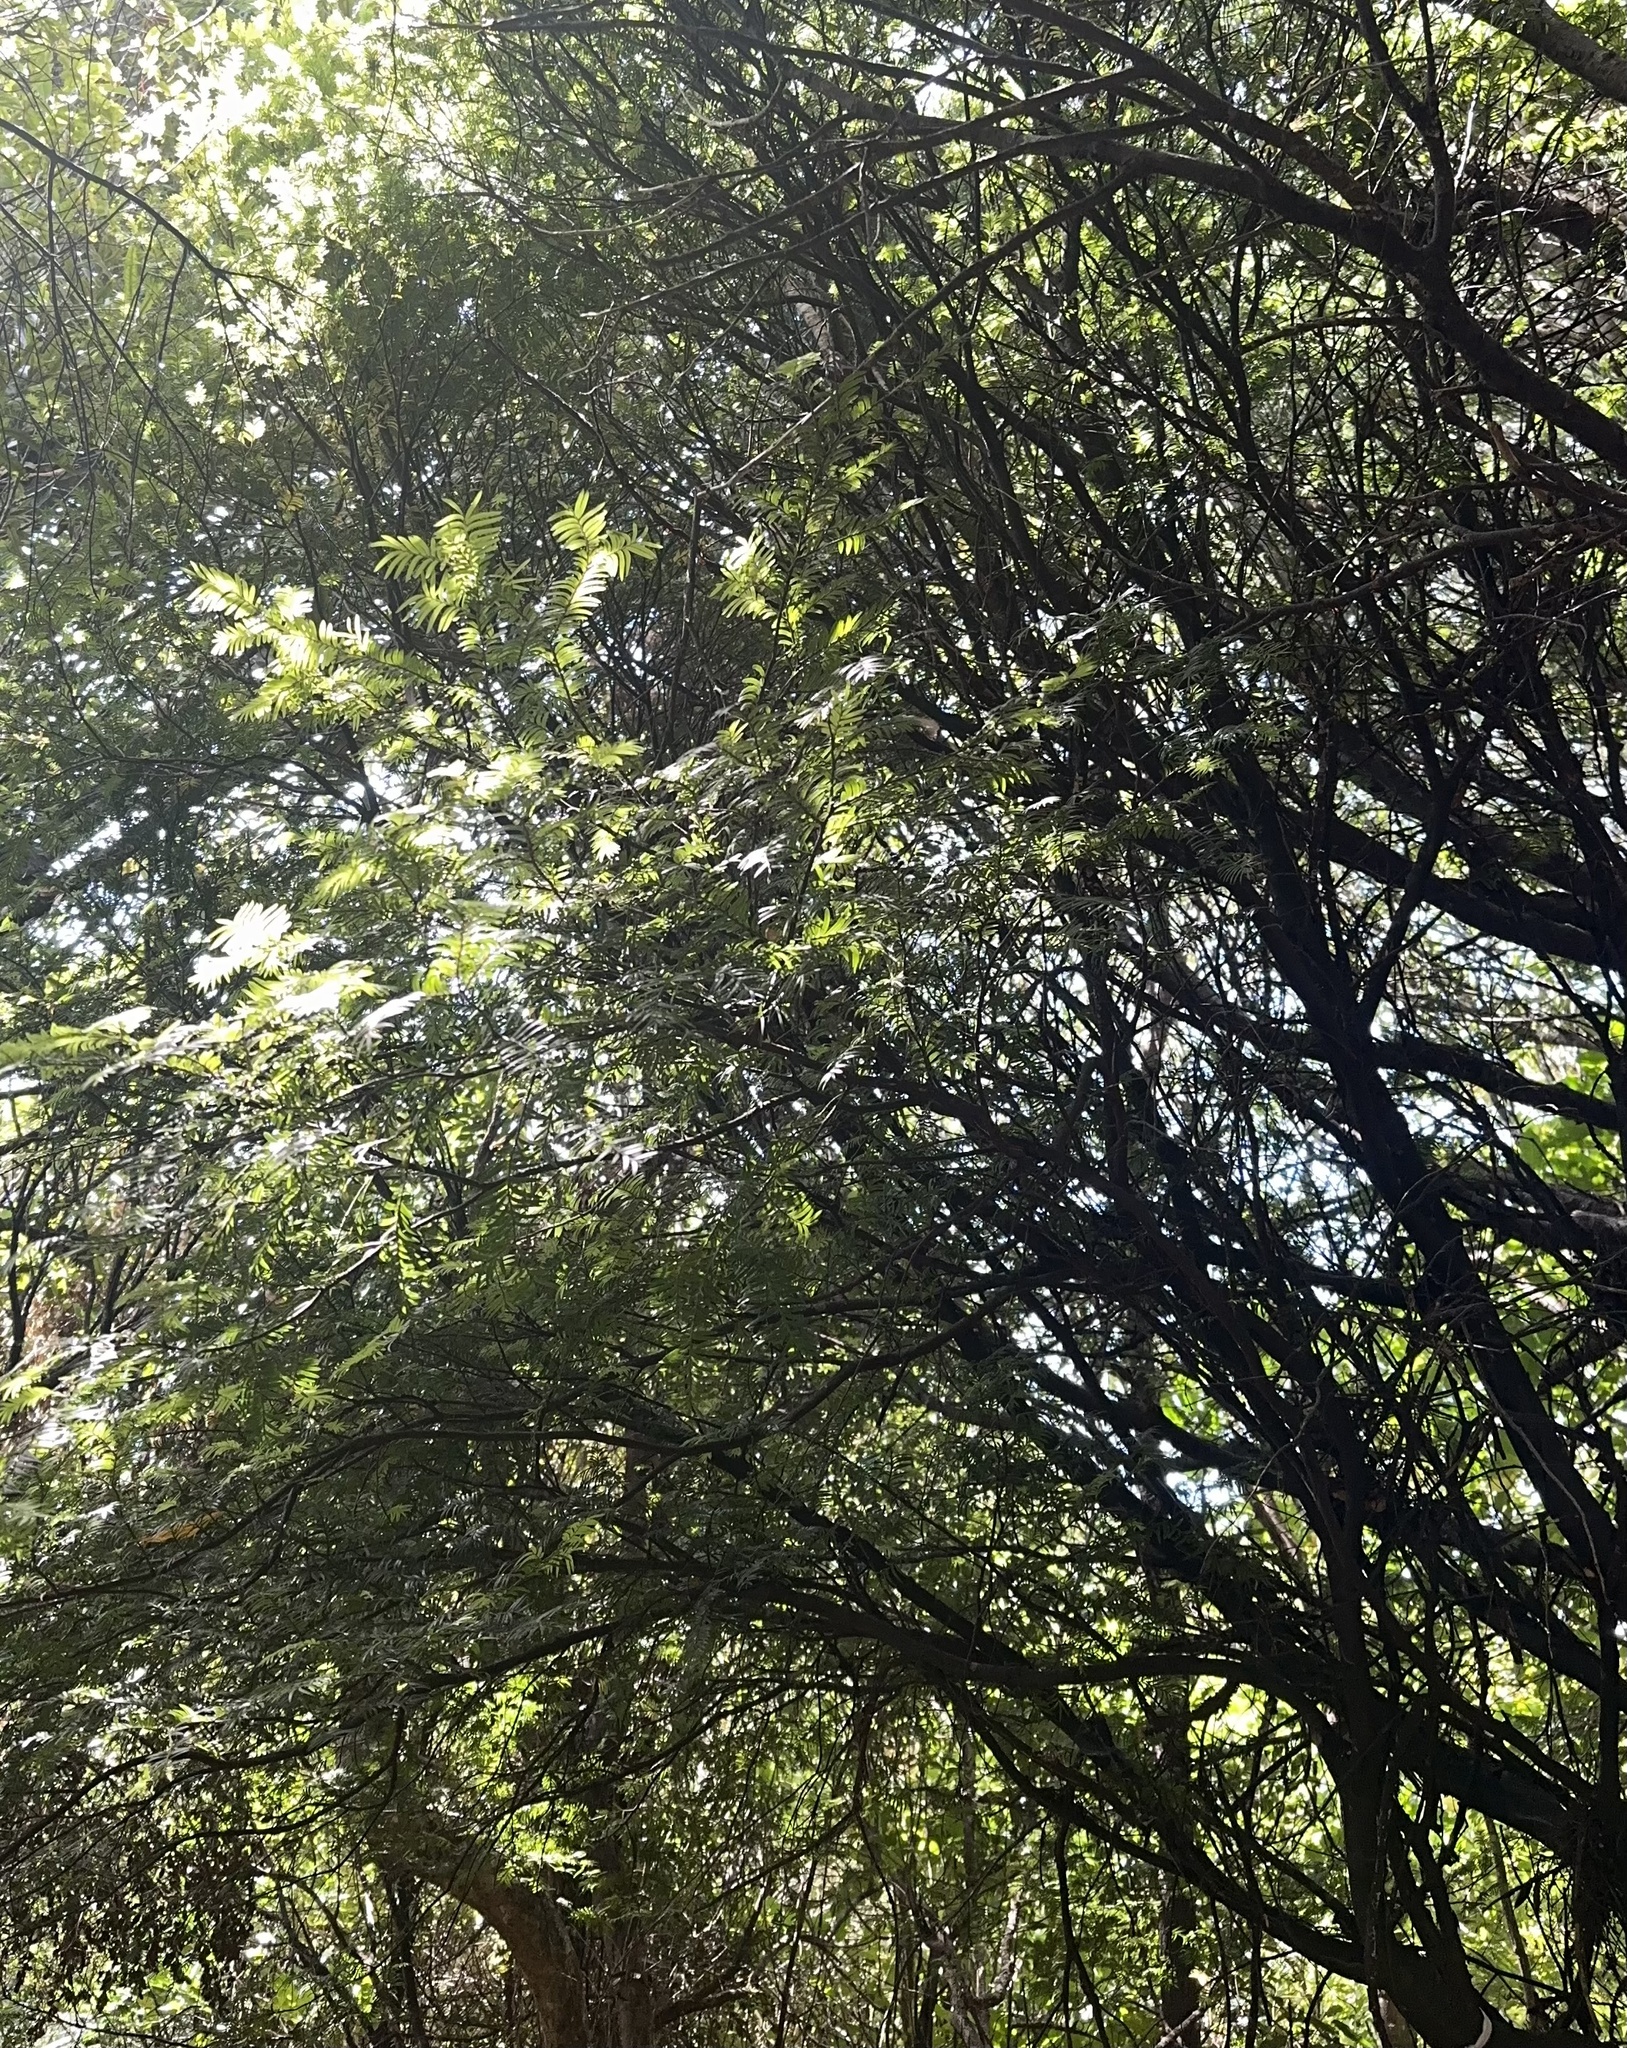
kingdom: Plantae
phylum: Tracheophyta
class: Pinopsida
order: Pinales
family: Podocarpaceae
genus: Prumnopitys
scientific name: Prumnopitys ferruginea
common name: Brown pine
